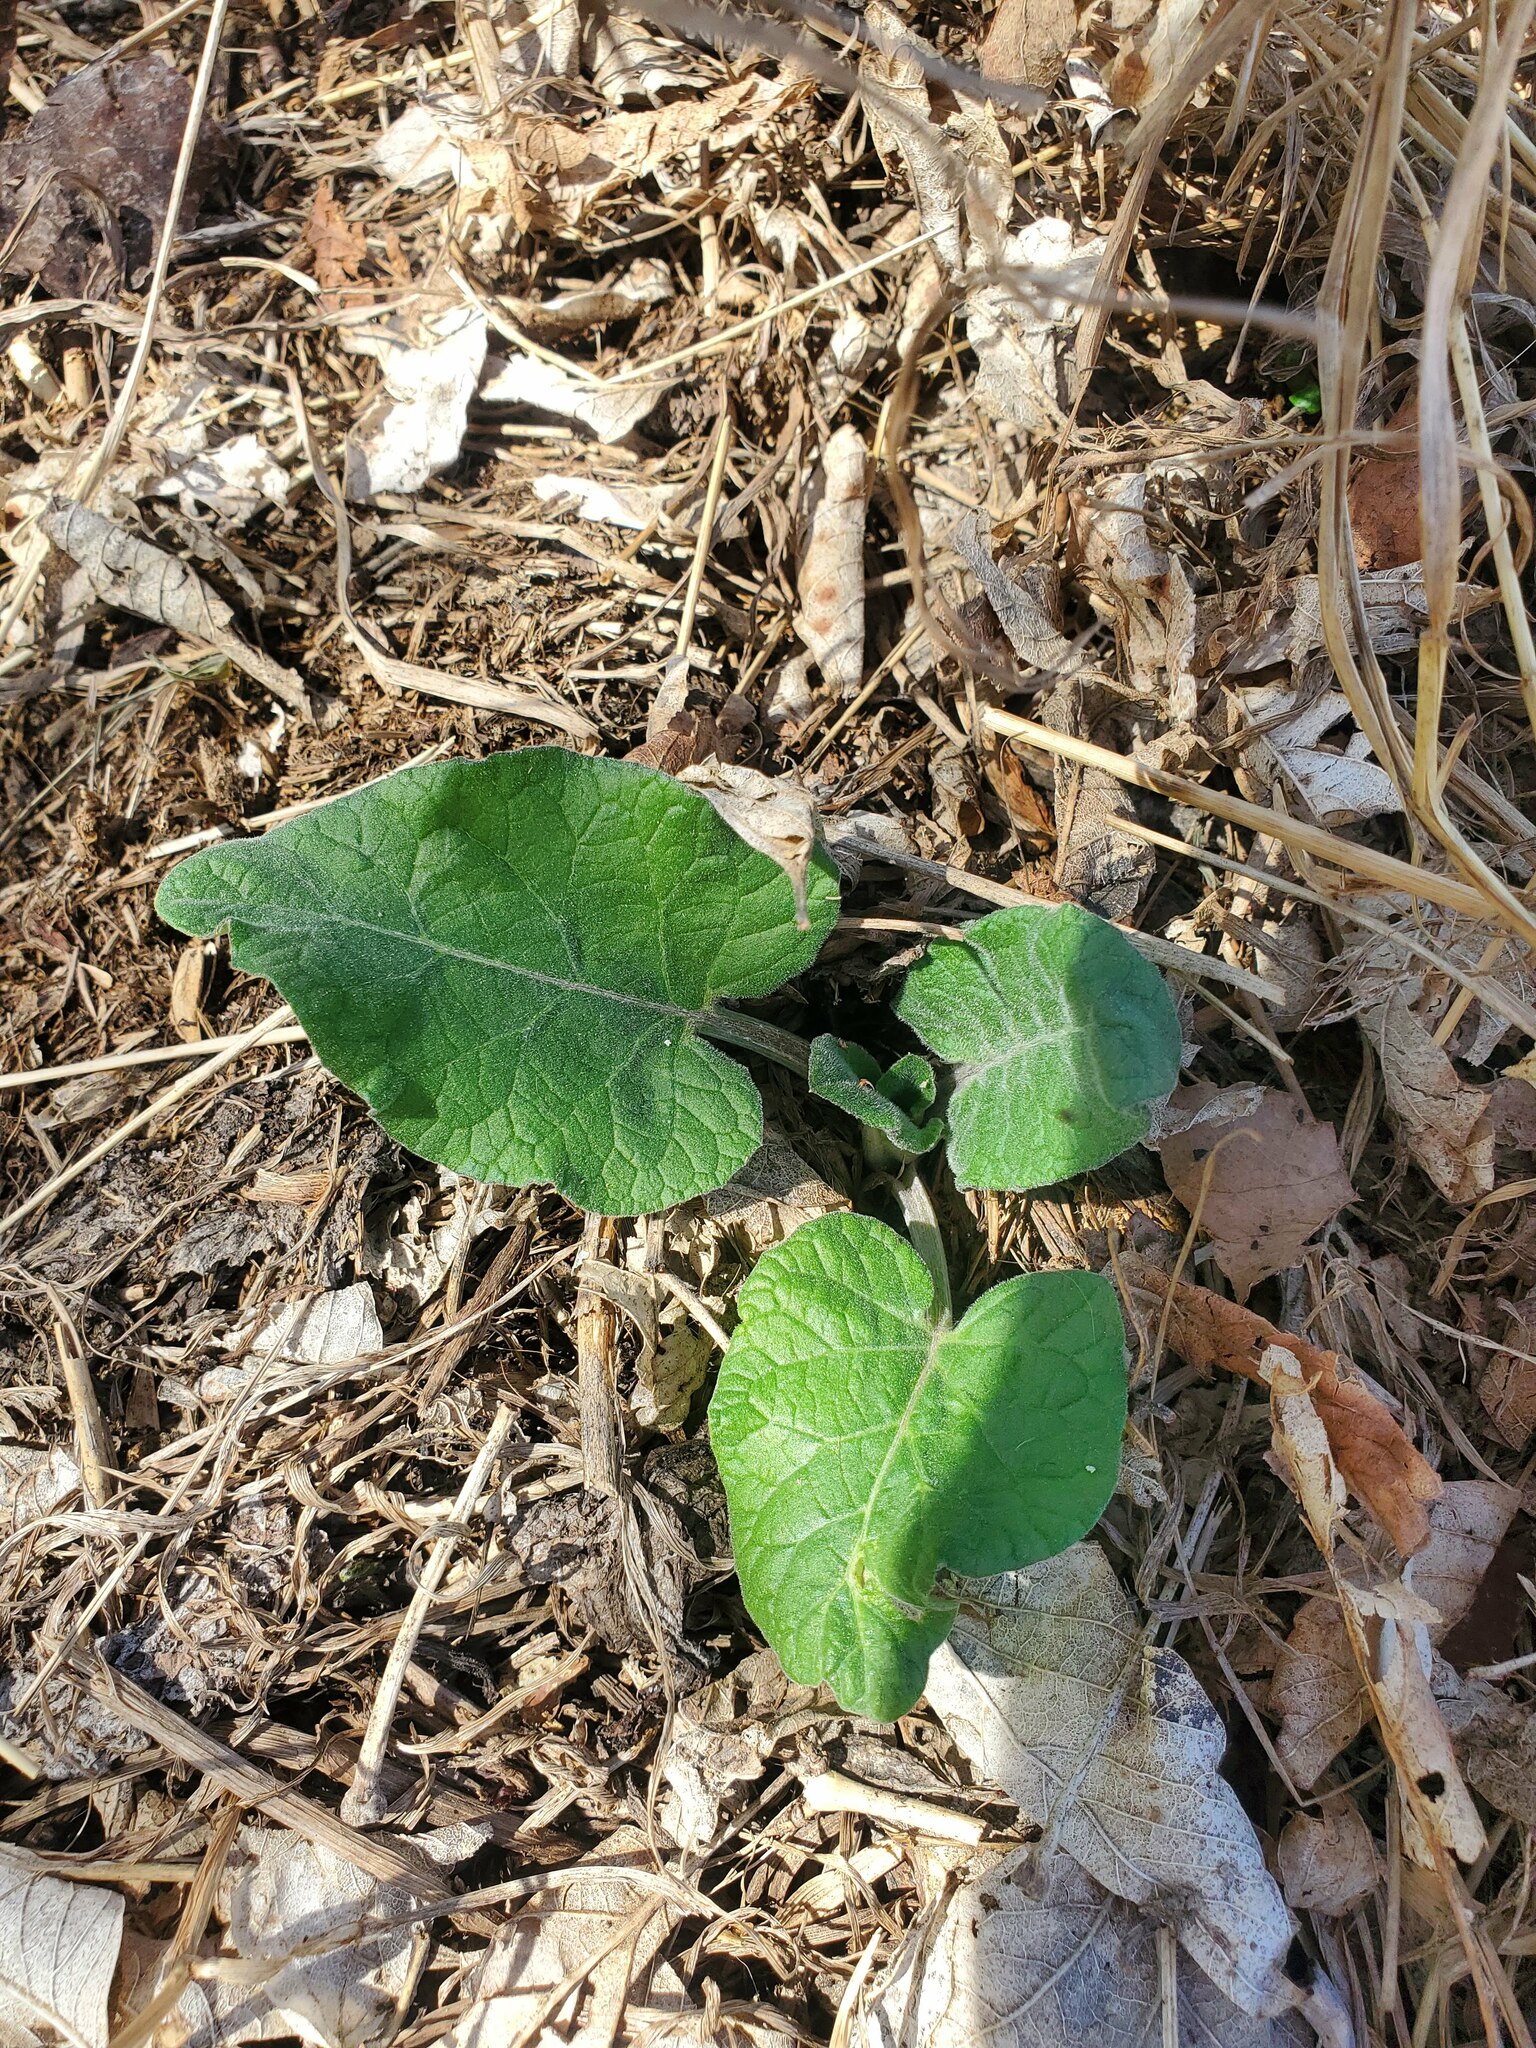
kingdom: Plantae
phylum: Tracheophyta
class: Magnoliopsida
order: Asterales
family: Asteraceae
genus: Arctium
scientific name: Arctium
